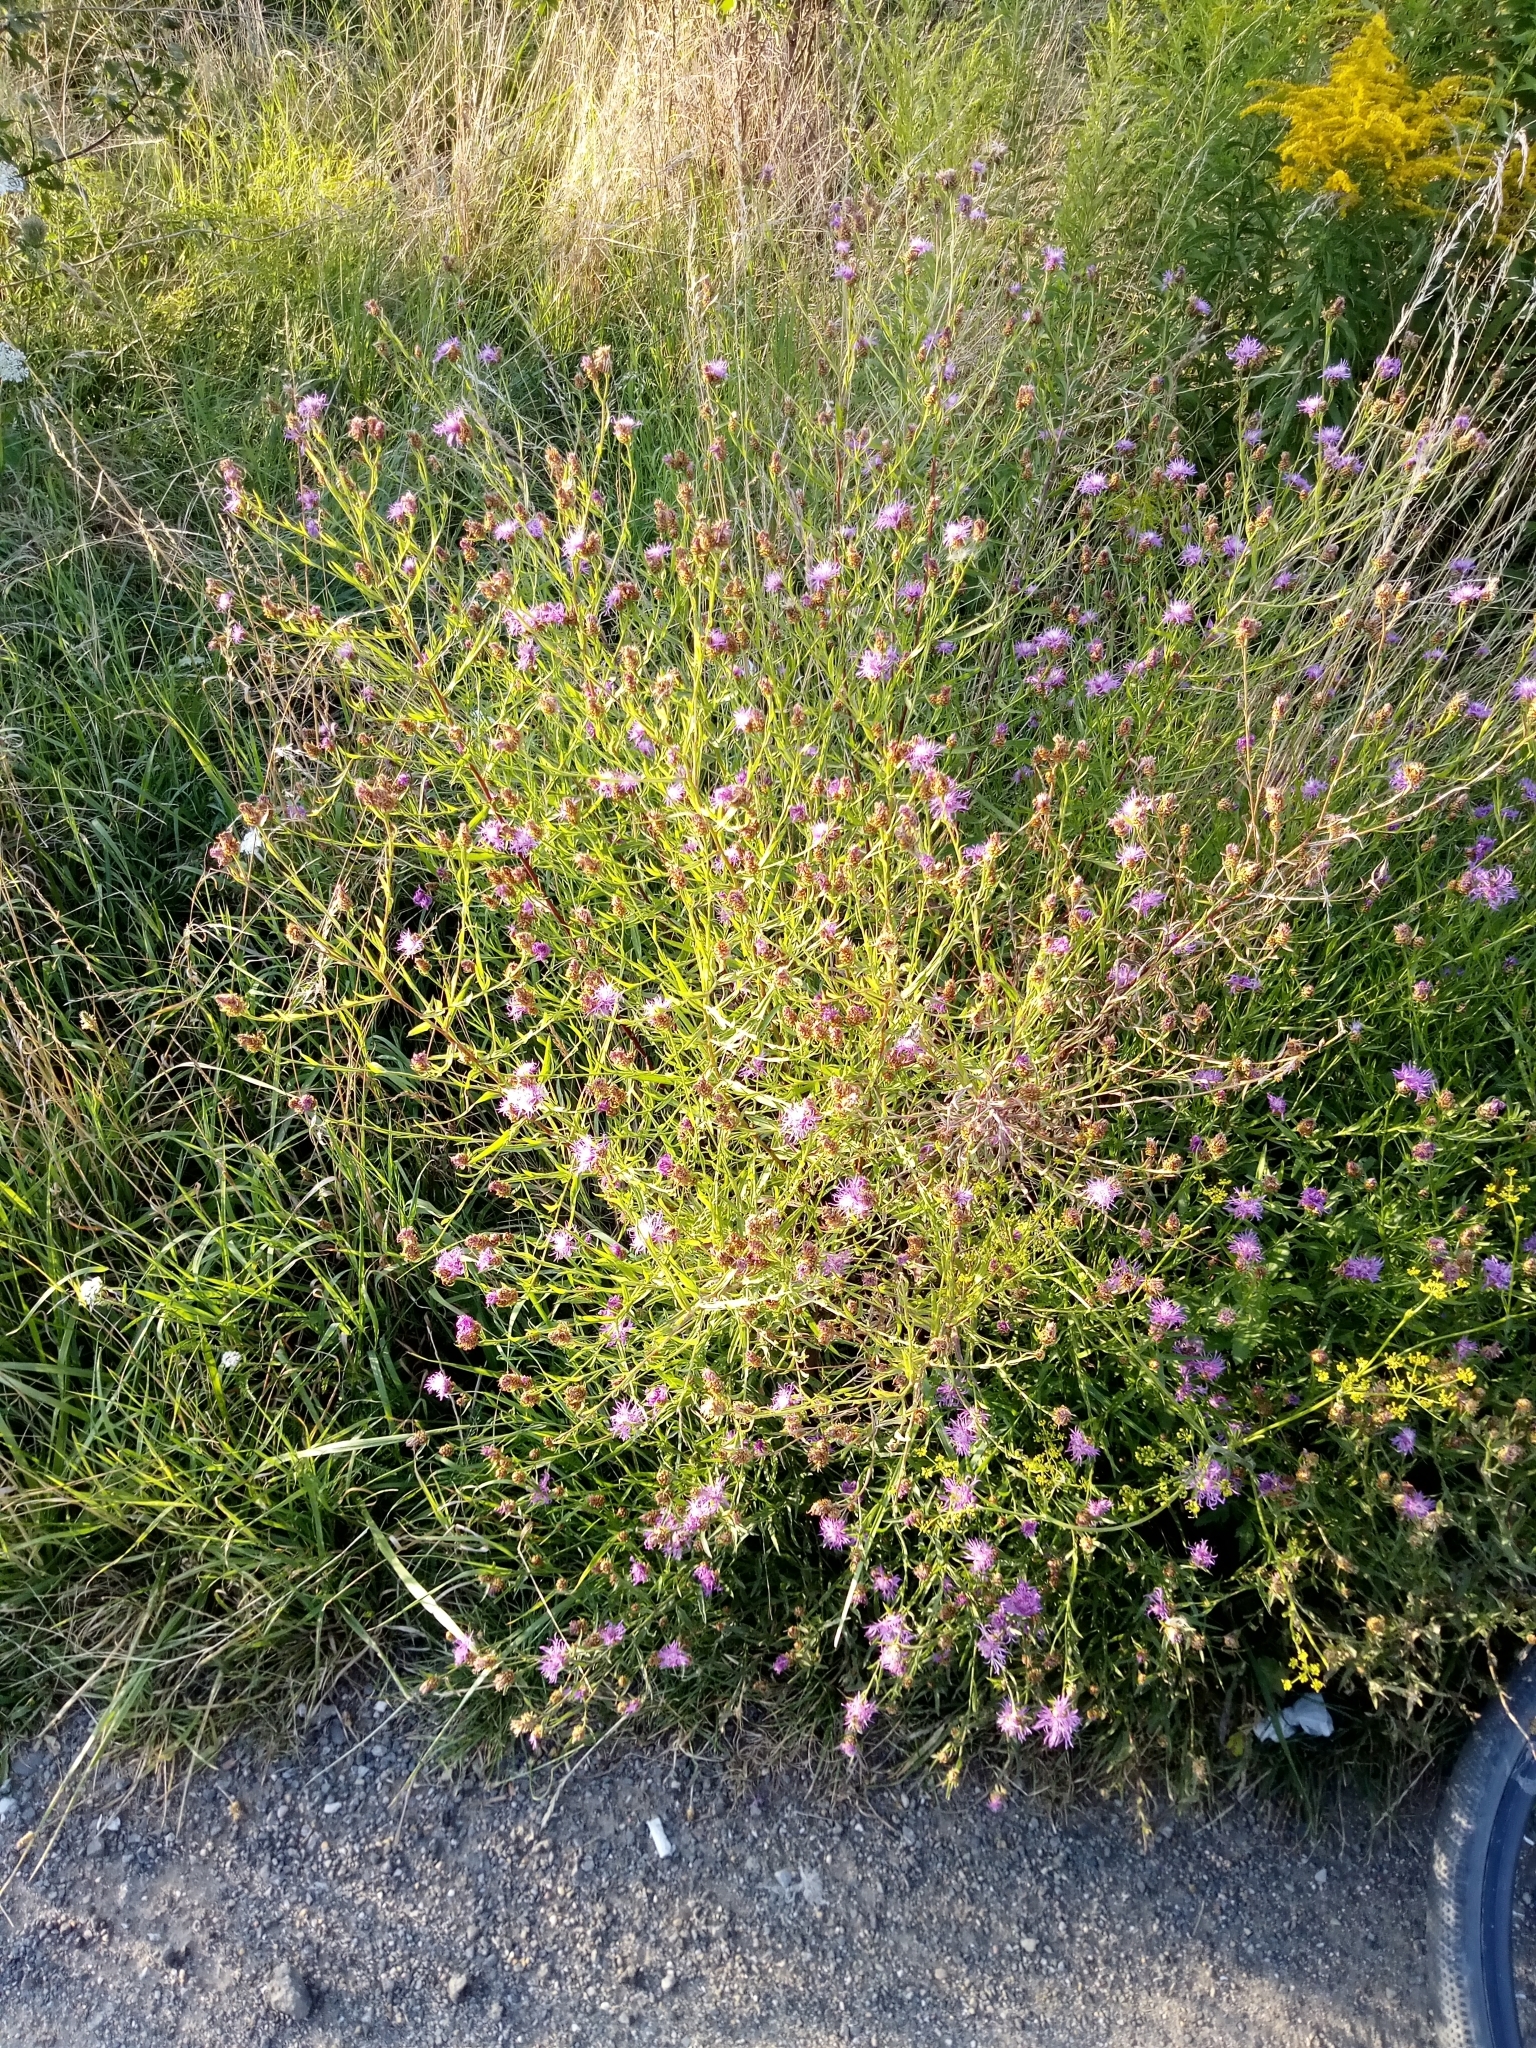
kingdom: Plantae
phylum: Tracheophyta
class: Magnoliopsida
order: Asterales
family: Asteraceae
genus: Centaurea
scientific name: Centaurea jacea
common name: Brown knapweed
